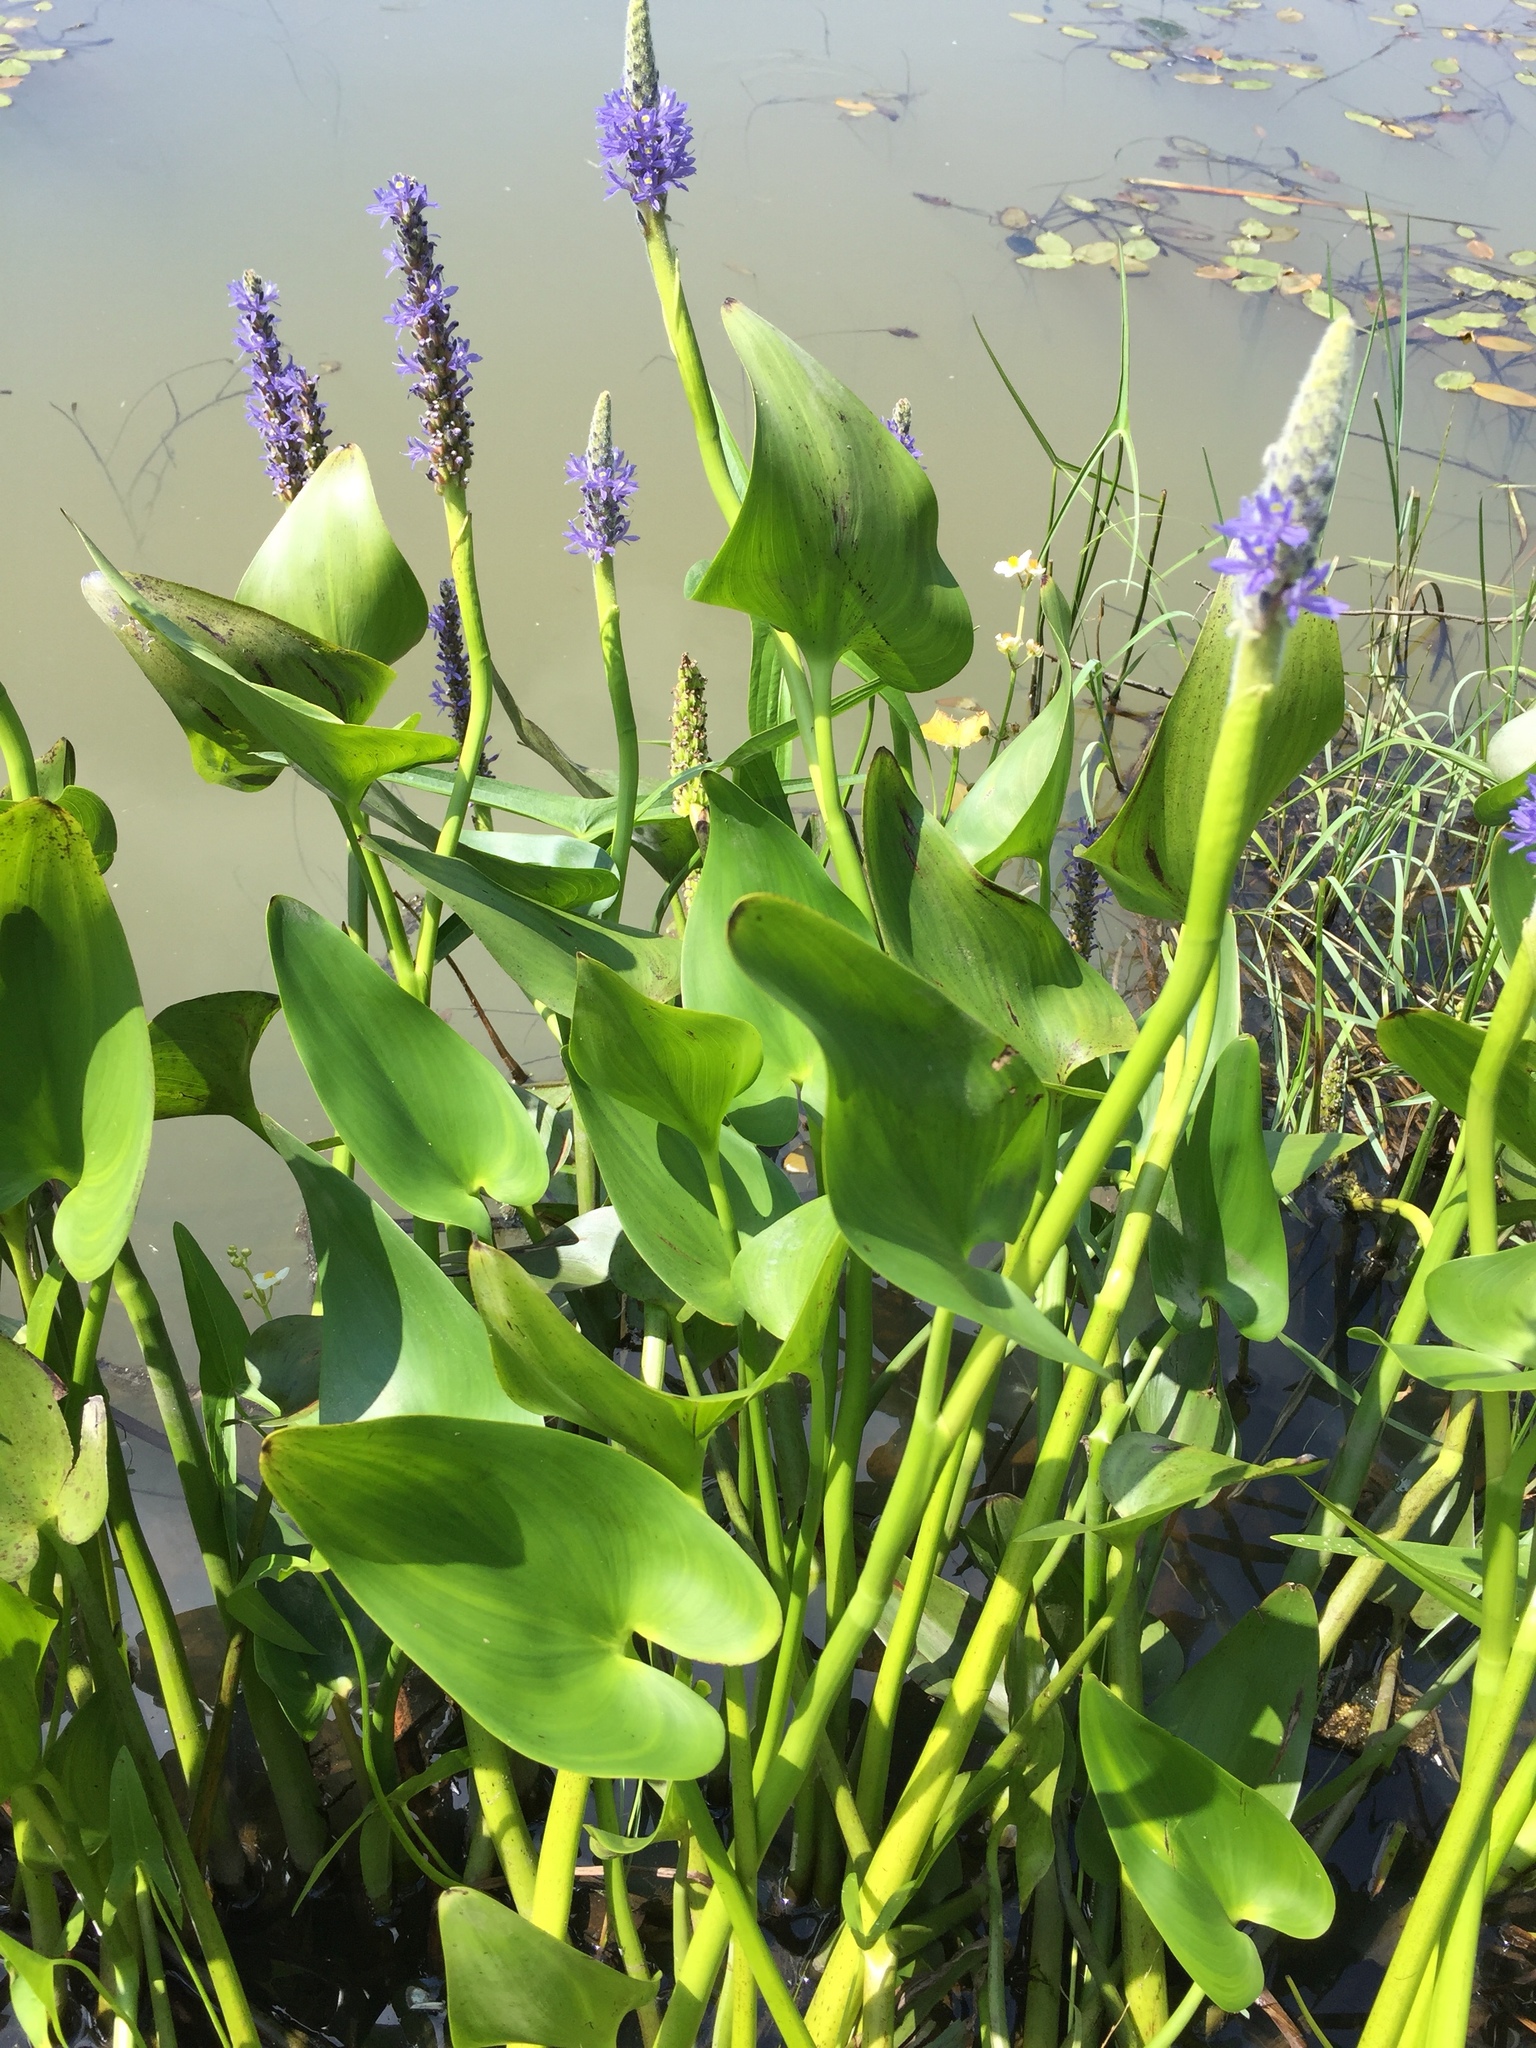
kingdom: Plantae
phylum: Tracheophyta
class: Liliopsida
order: Commelinales
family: Pontederiaceae
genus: Pontederia
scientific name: Pontederia cordata
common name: Pickerelweed
